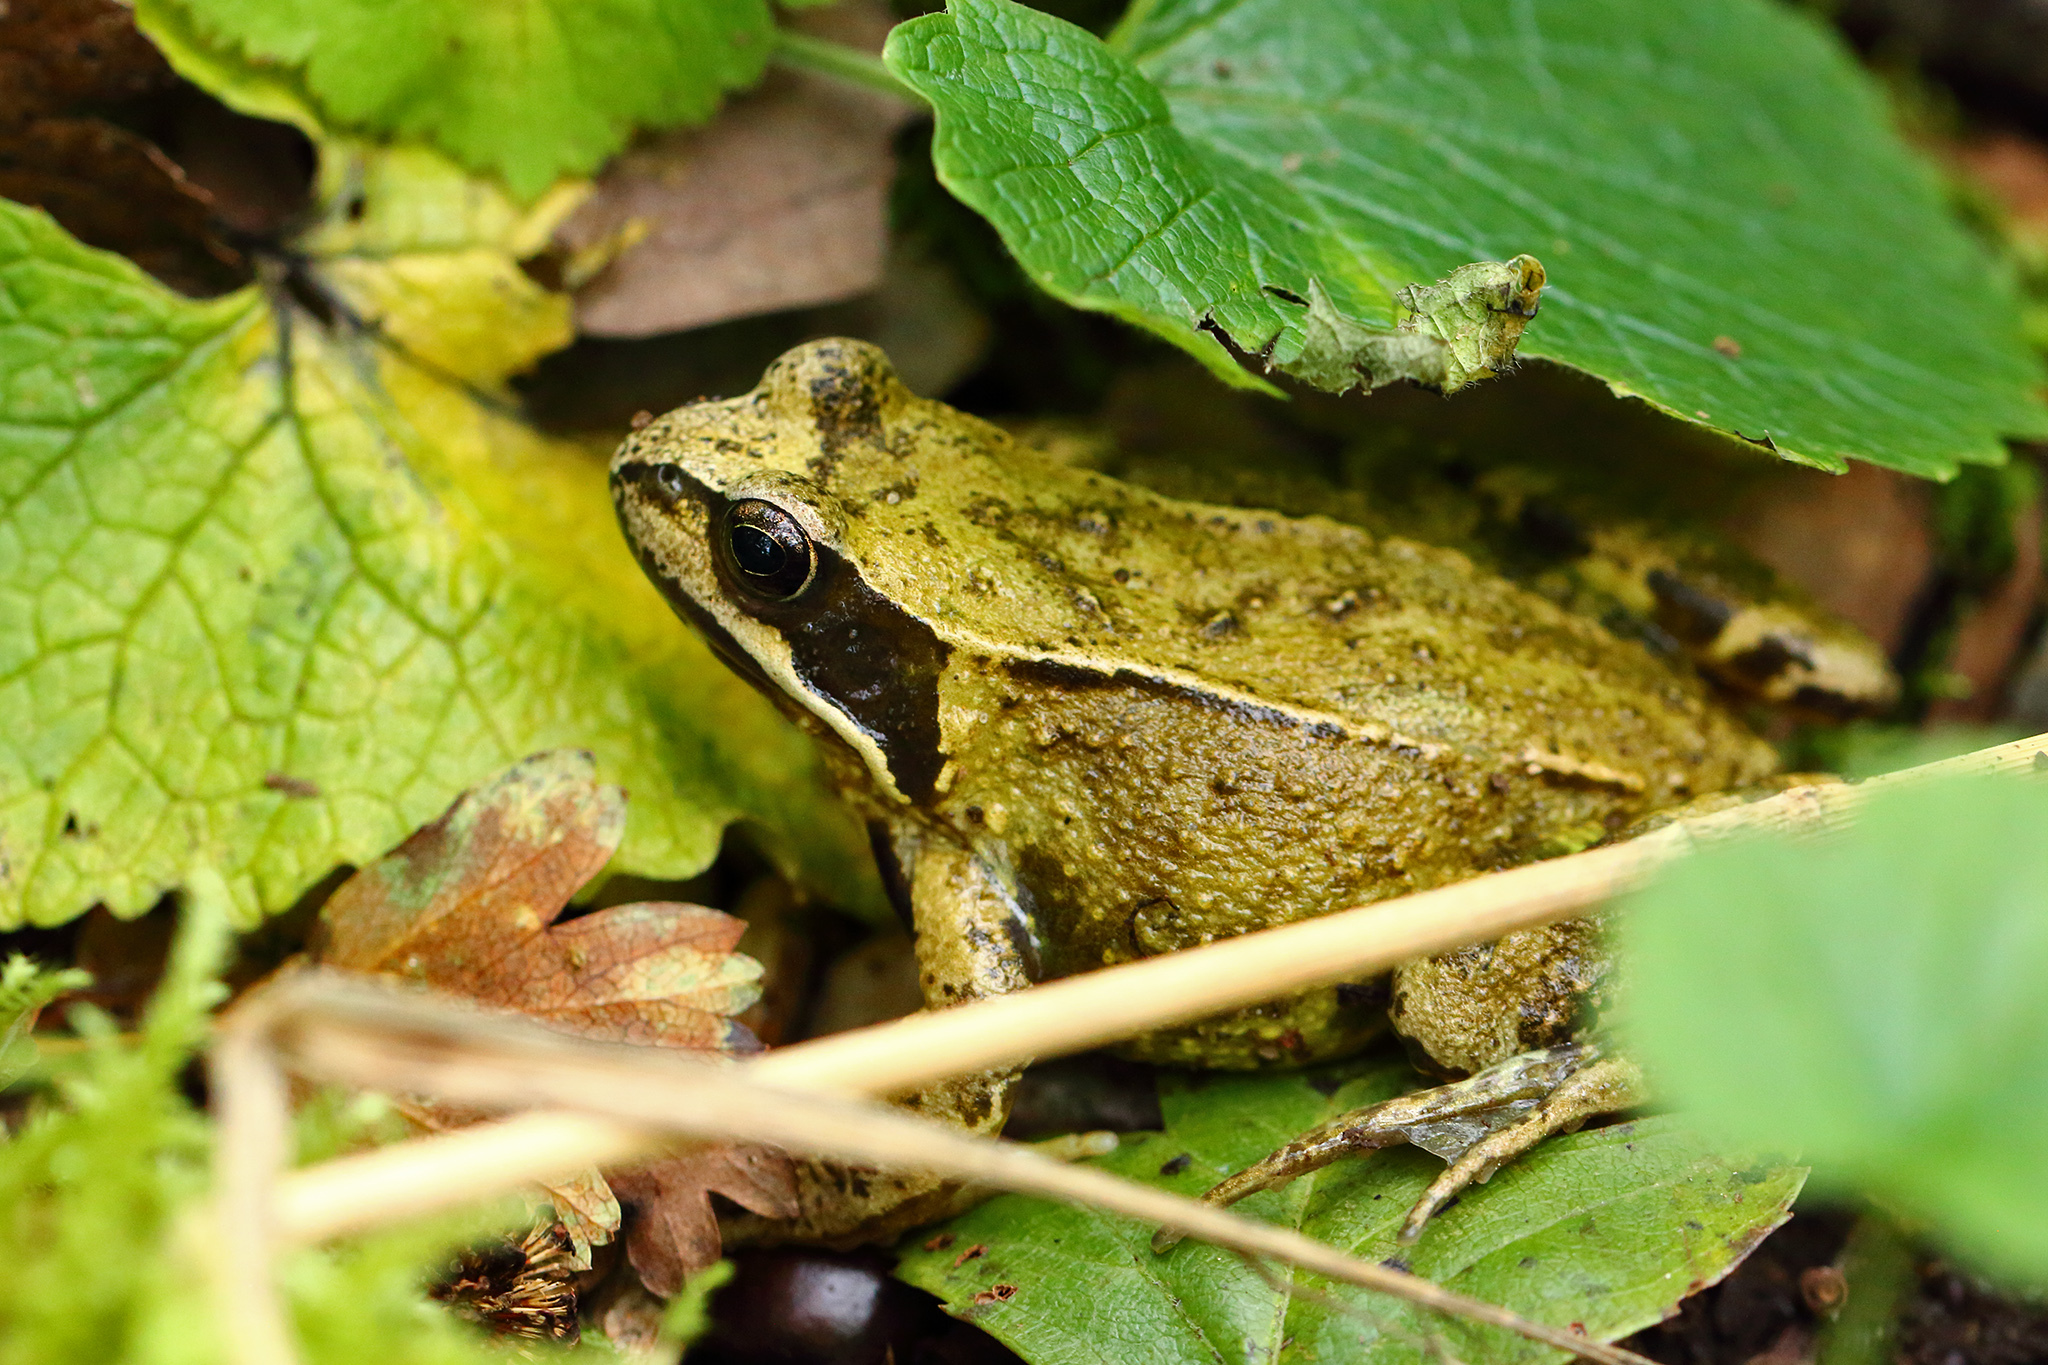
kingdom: Animalia
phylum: Chordata
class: Amphibia
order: Anura
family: Ranidae
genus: Rana
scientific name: Rana temporaria
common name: Common frog
